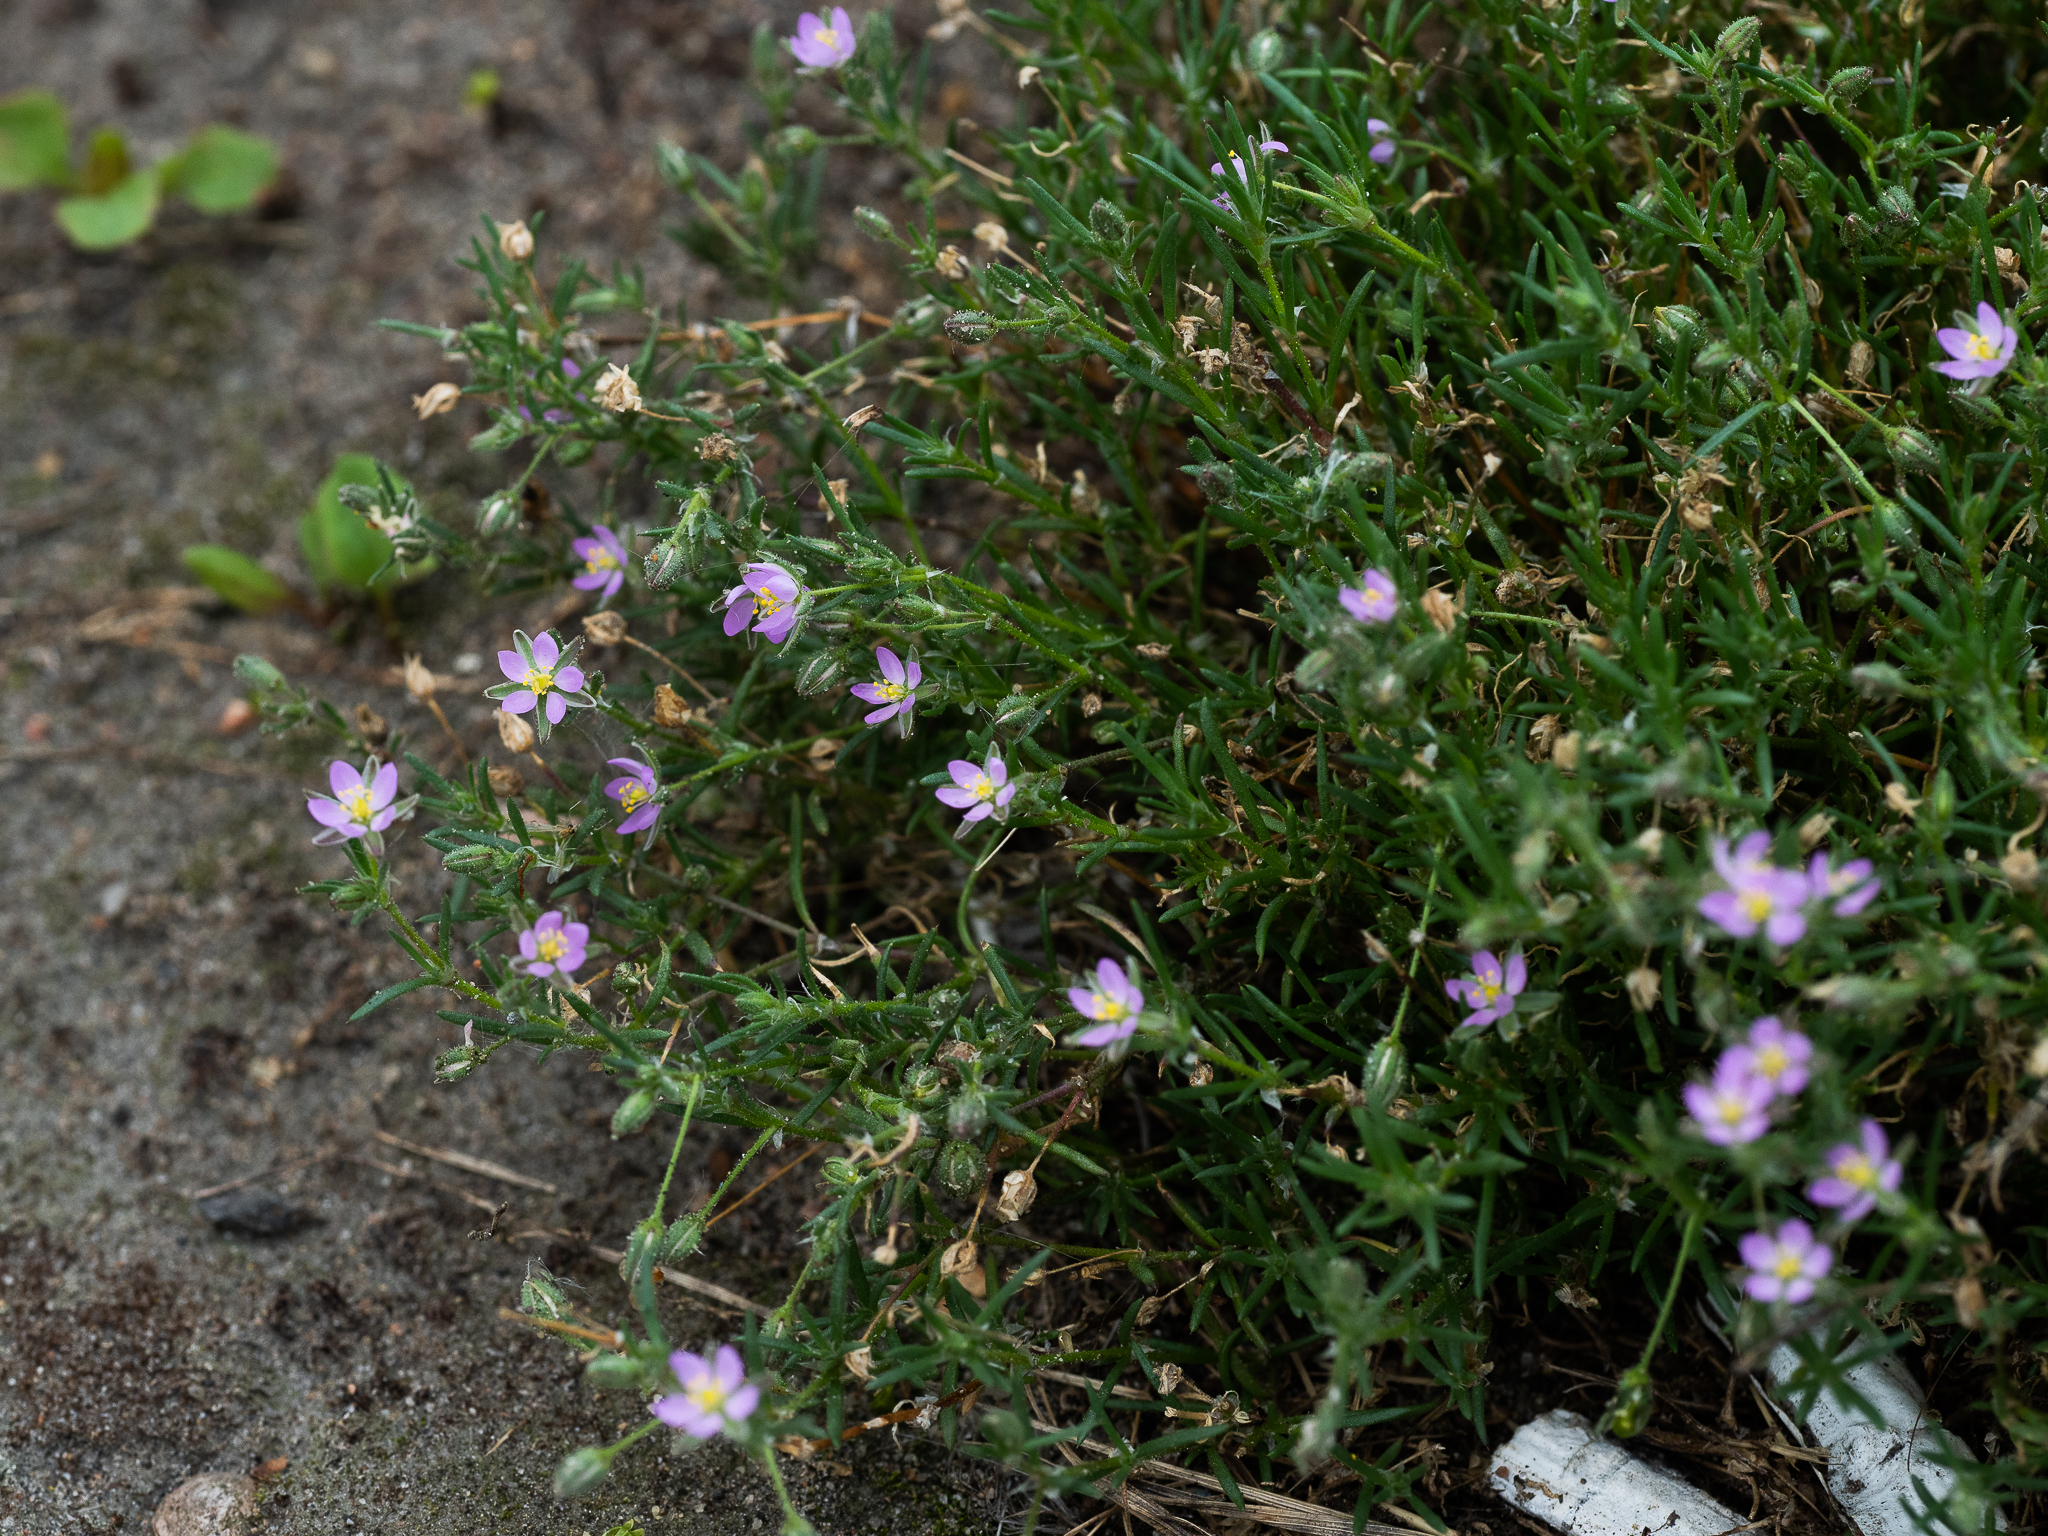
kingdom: Plantae
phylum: Tracheophyta
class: Magnoliopsida
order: Caryophyllales
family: Caryophyllaceae
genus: Spergularia
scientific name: Spergularia rubra
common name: Red sand-spurrey
